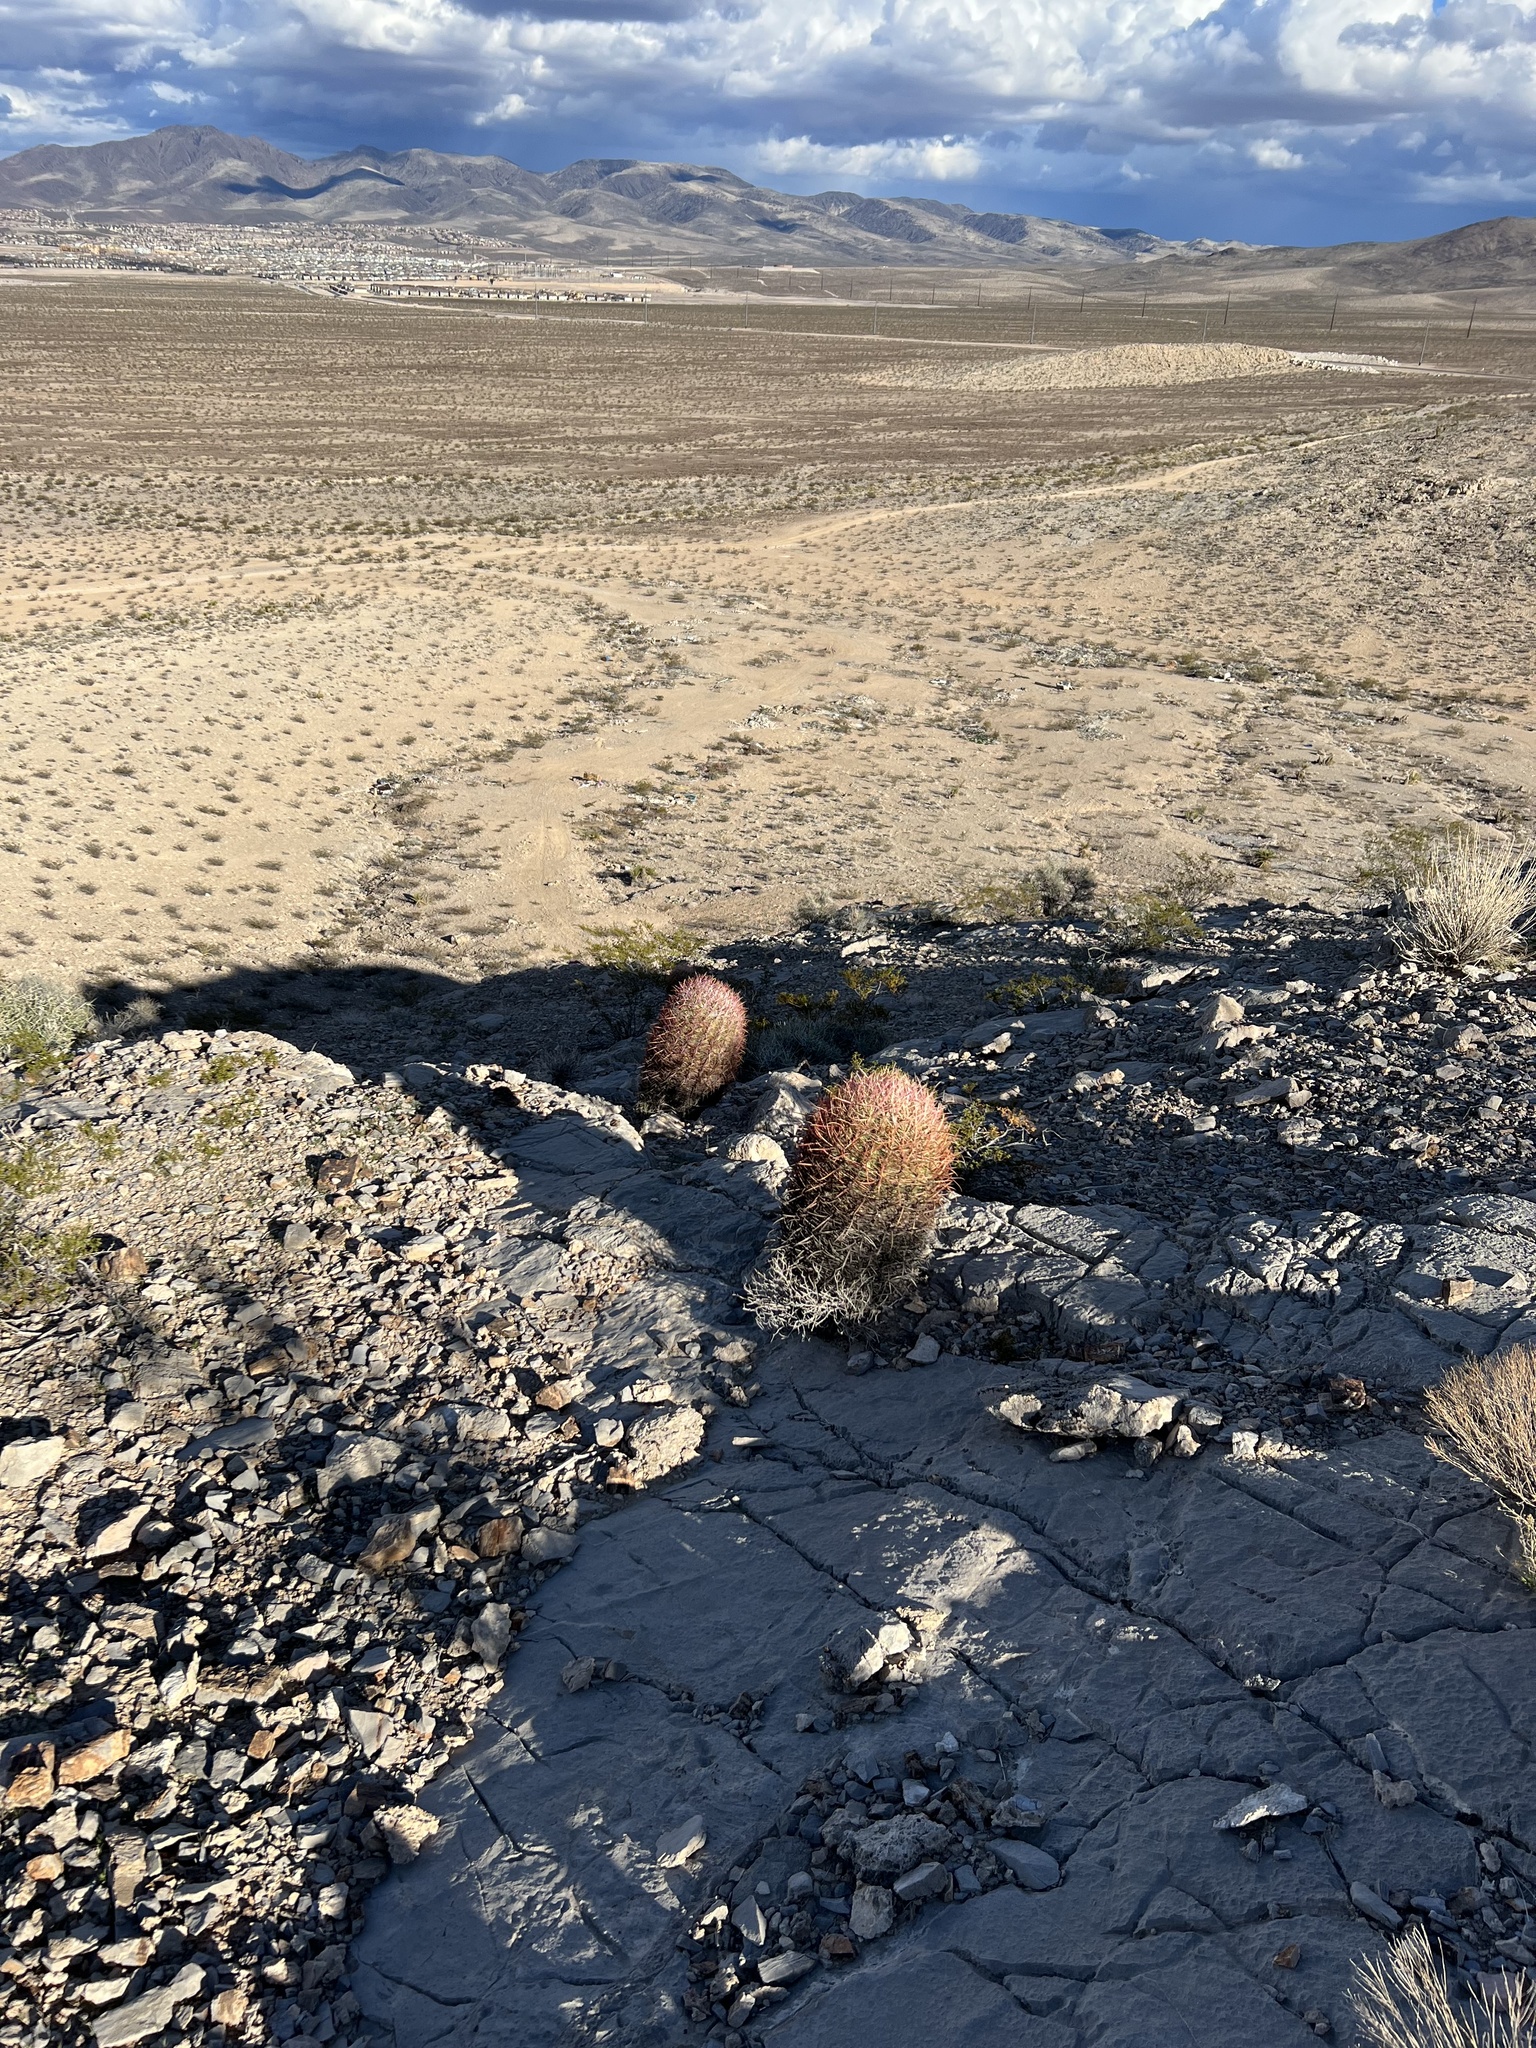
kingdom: Plantae
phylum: Tracheophyta
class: Magnoliopsida
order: Caryophyllales
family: Cactaceae
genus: Ferocactus
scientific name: Ferocactus cylindraceus
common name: California barrel cactus
